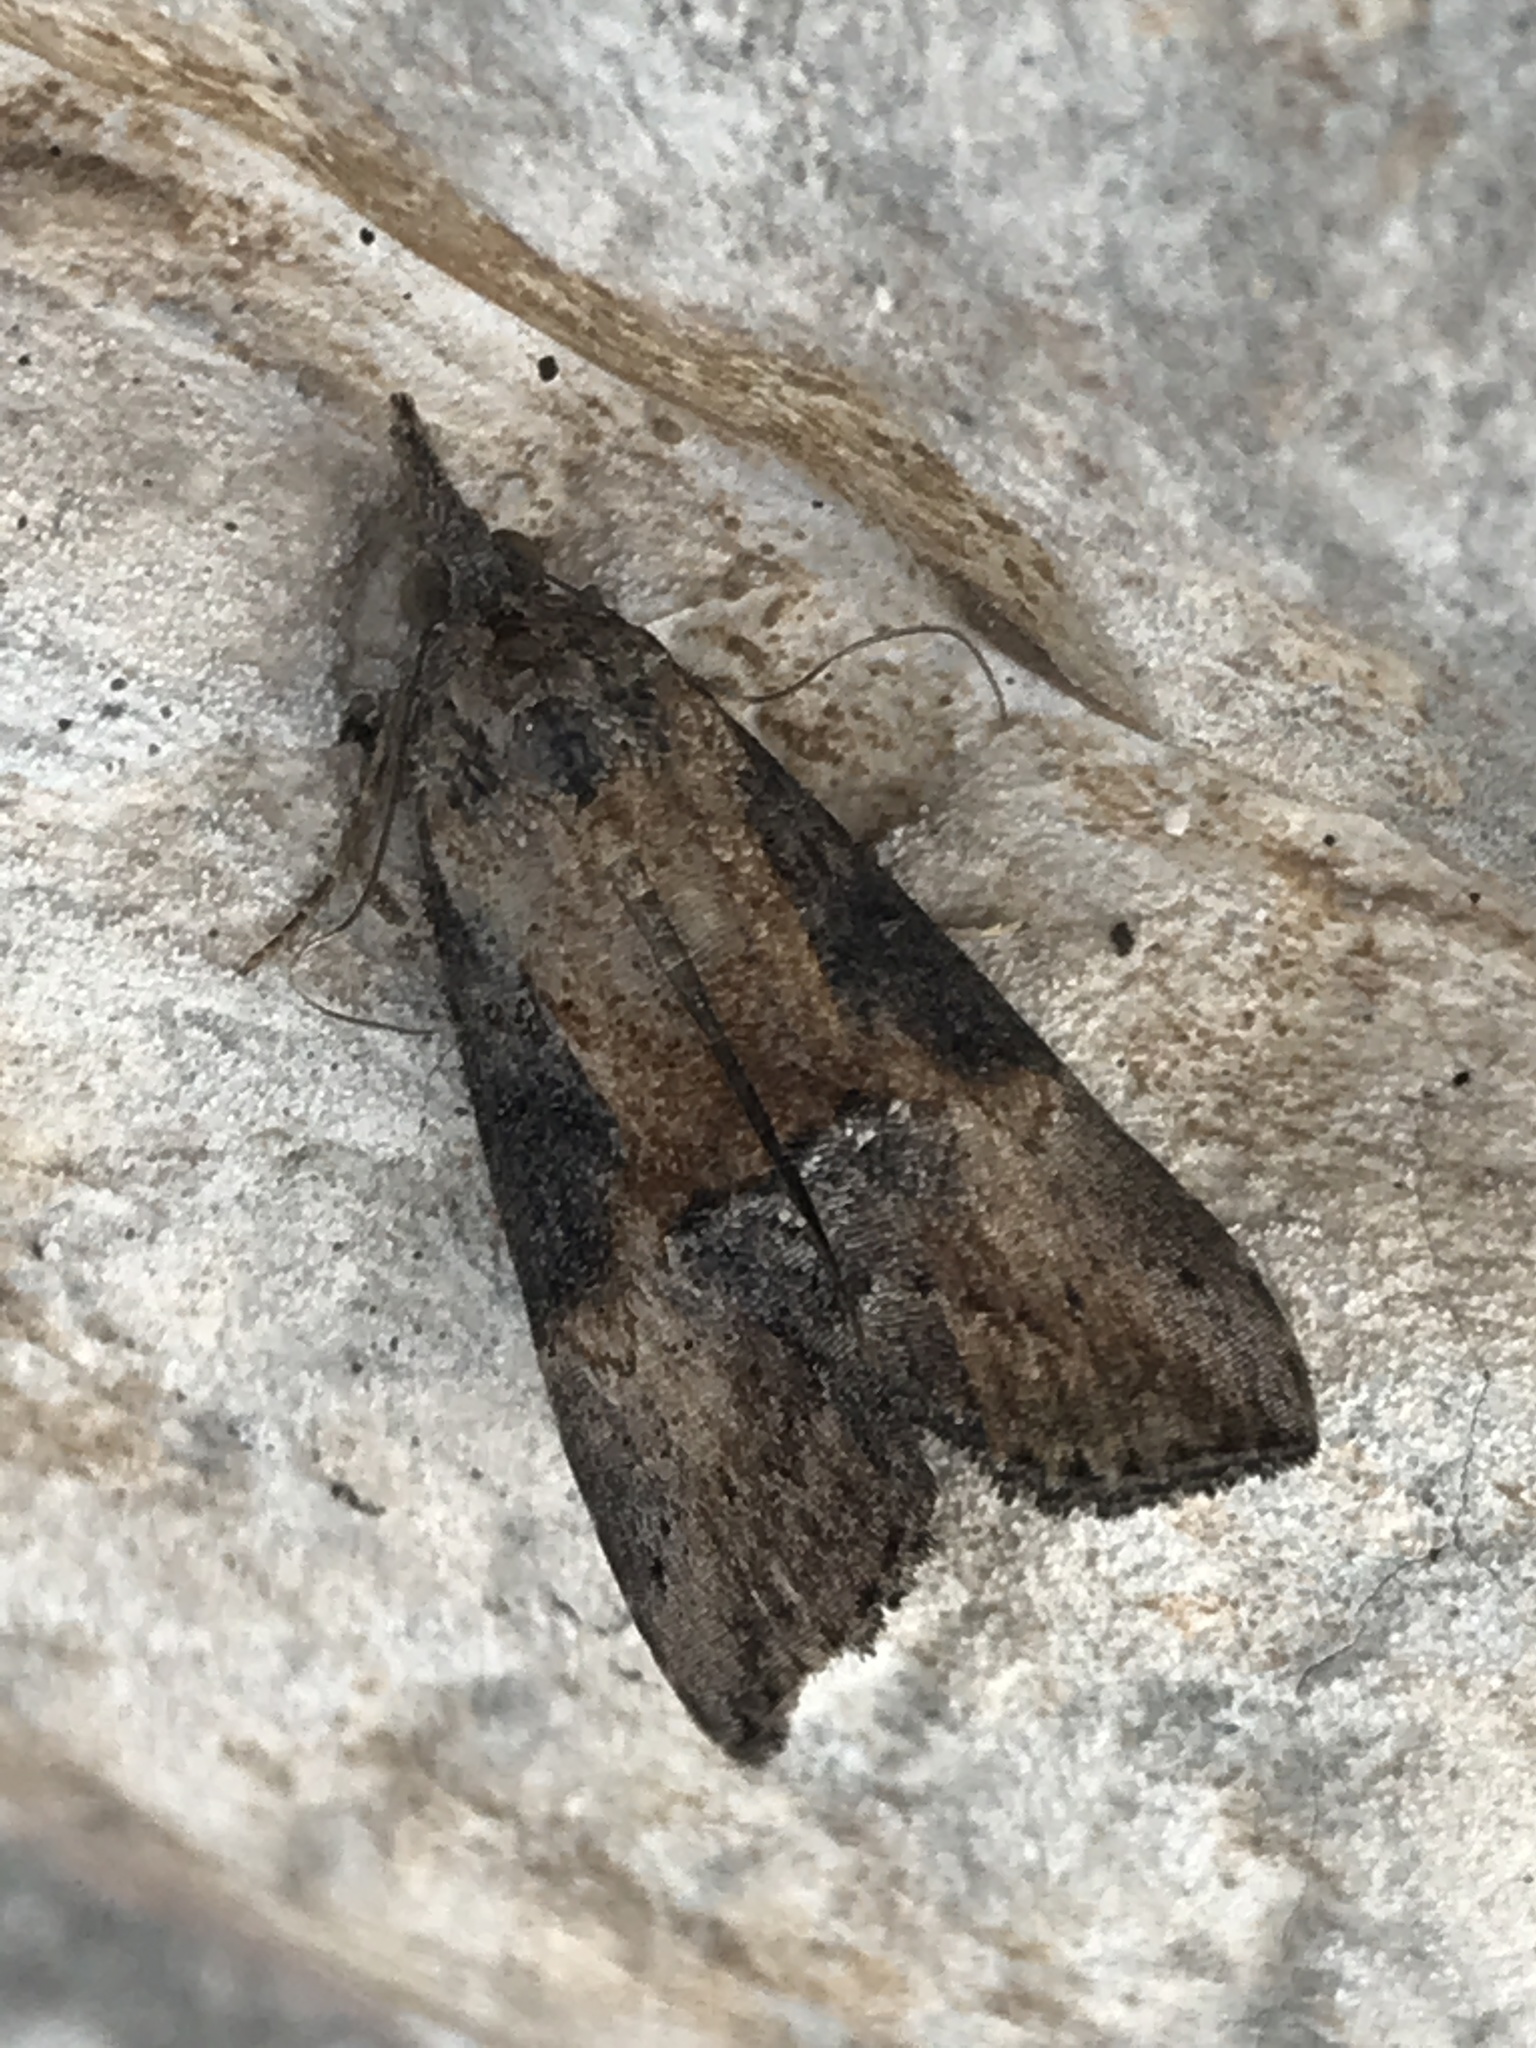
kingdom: Animalia
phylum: Arthropoda
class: Insecta
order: Lepidoptera
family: Erebidae
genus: Hypena
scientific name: Hypena scabra
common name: Green cloverworm
